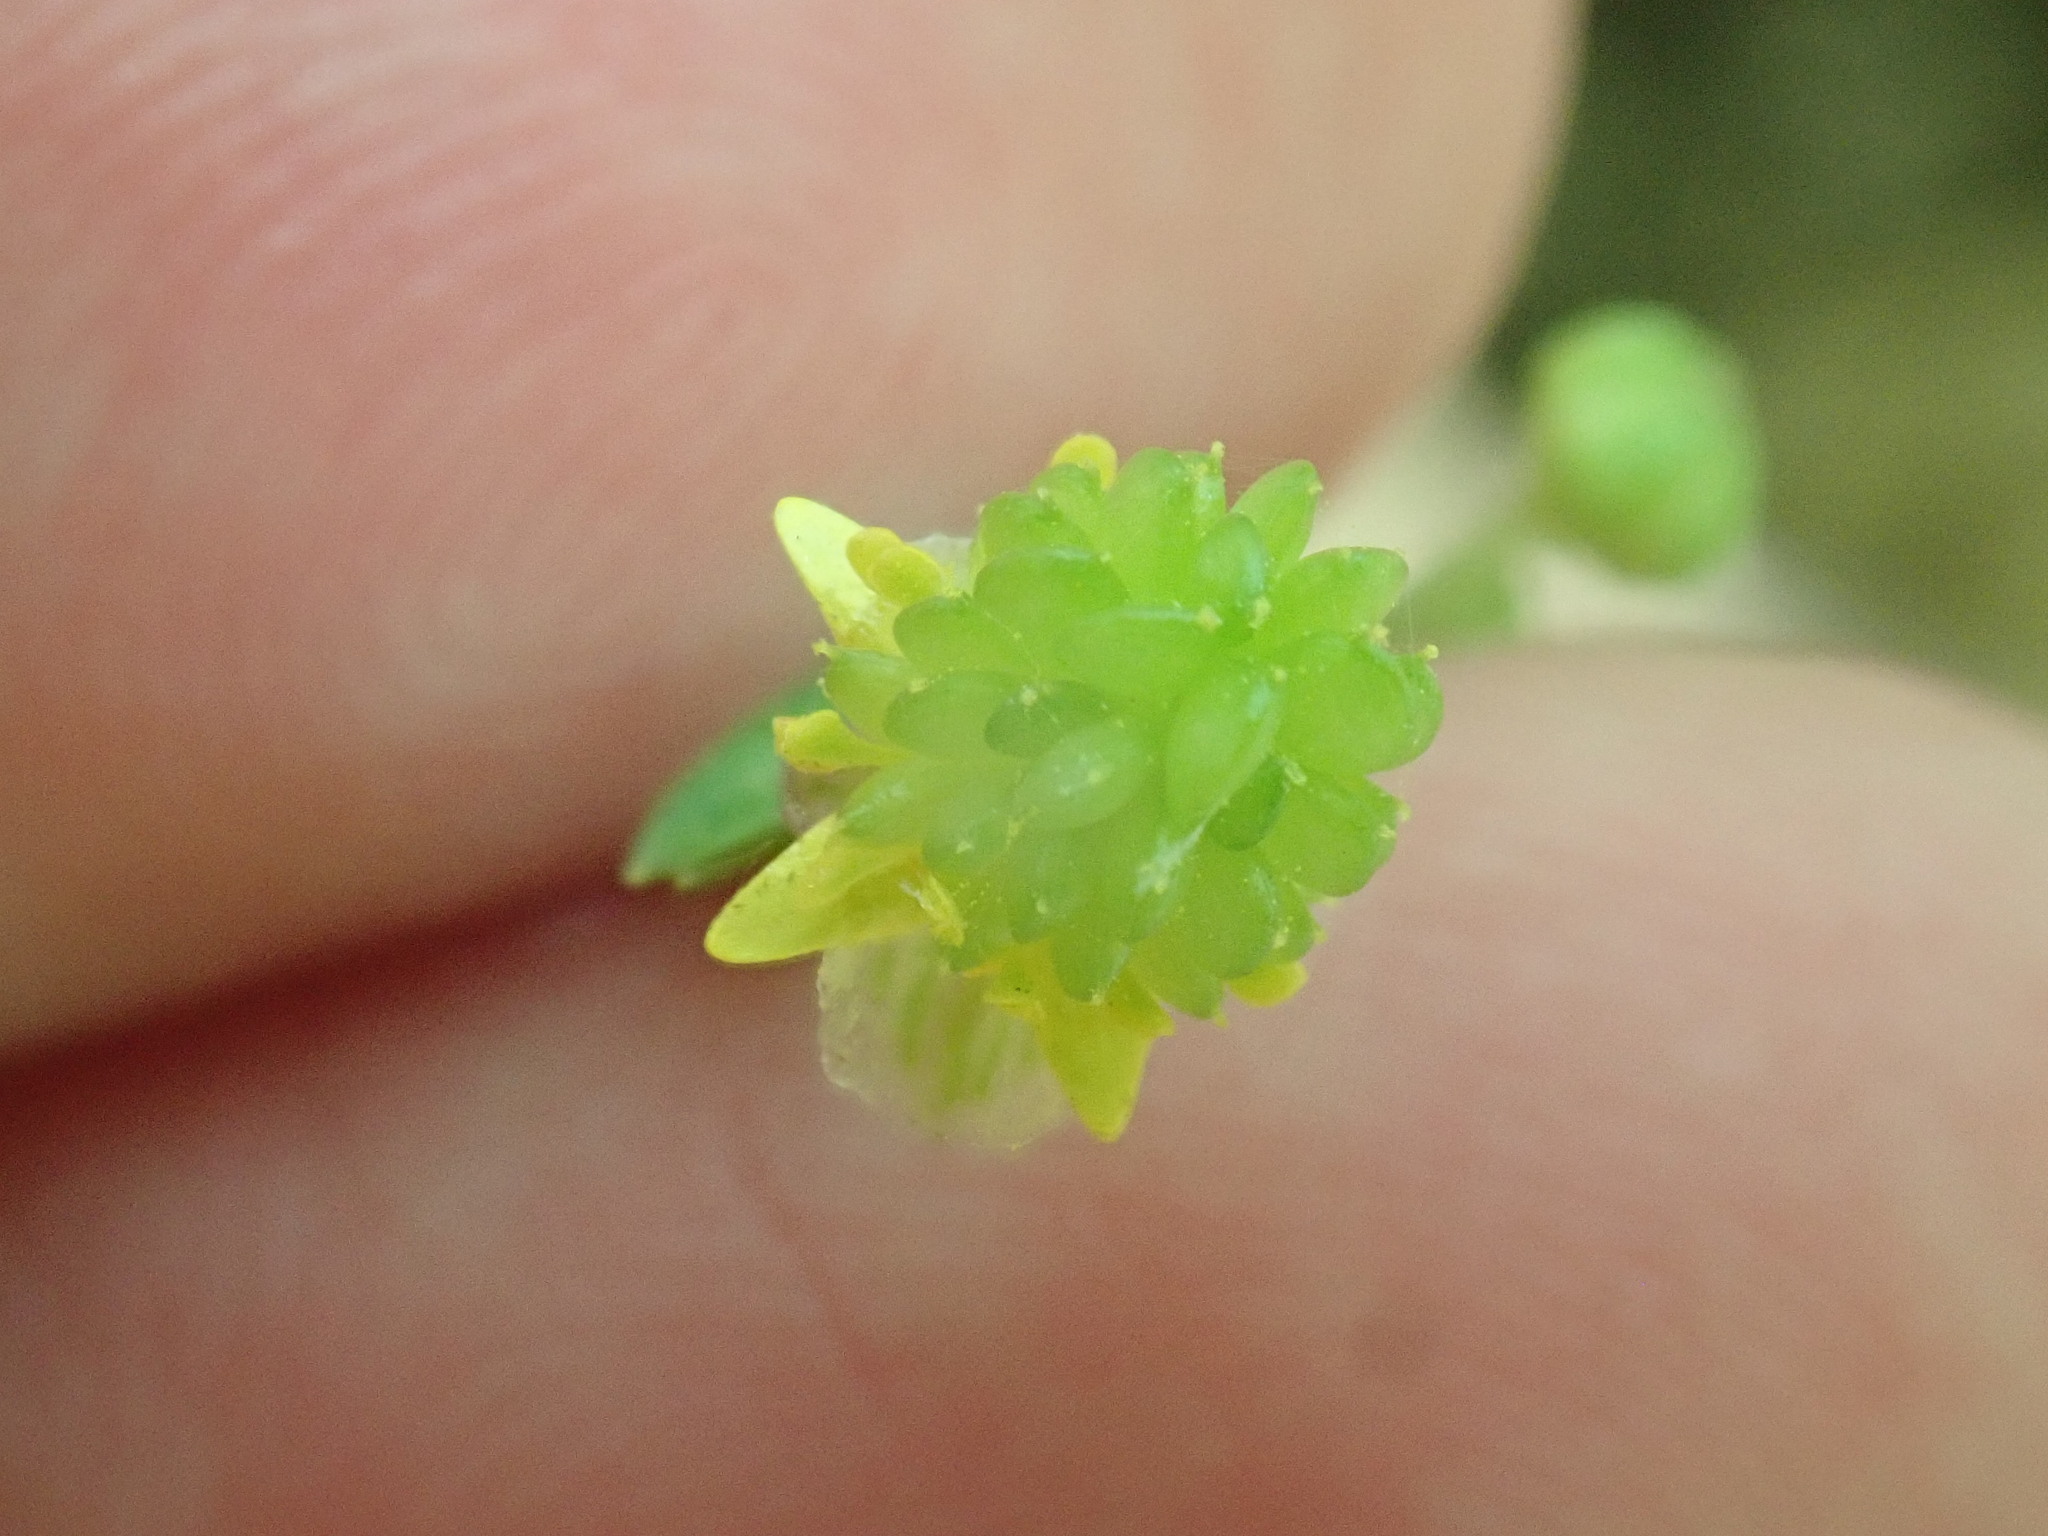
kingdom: Plantae
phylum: Tracheophyta
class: Magnoliopsida
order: Ranunculales
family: Ranunculaceae
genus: Ranunculus
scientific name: Ranunculus abortivus
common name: Early wood buttercup
